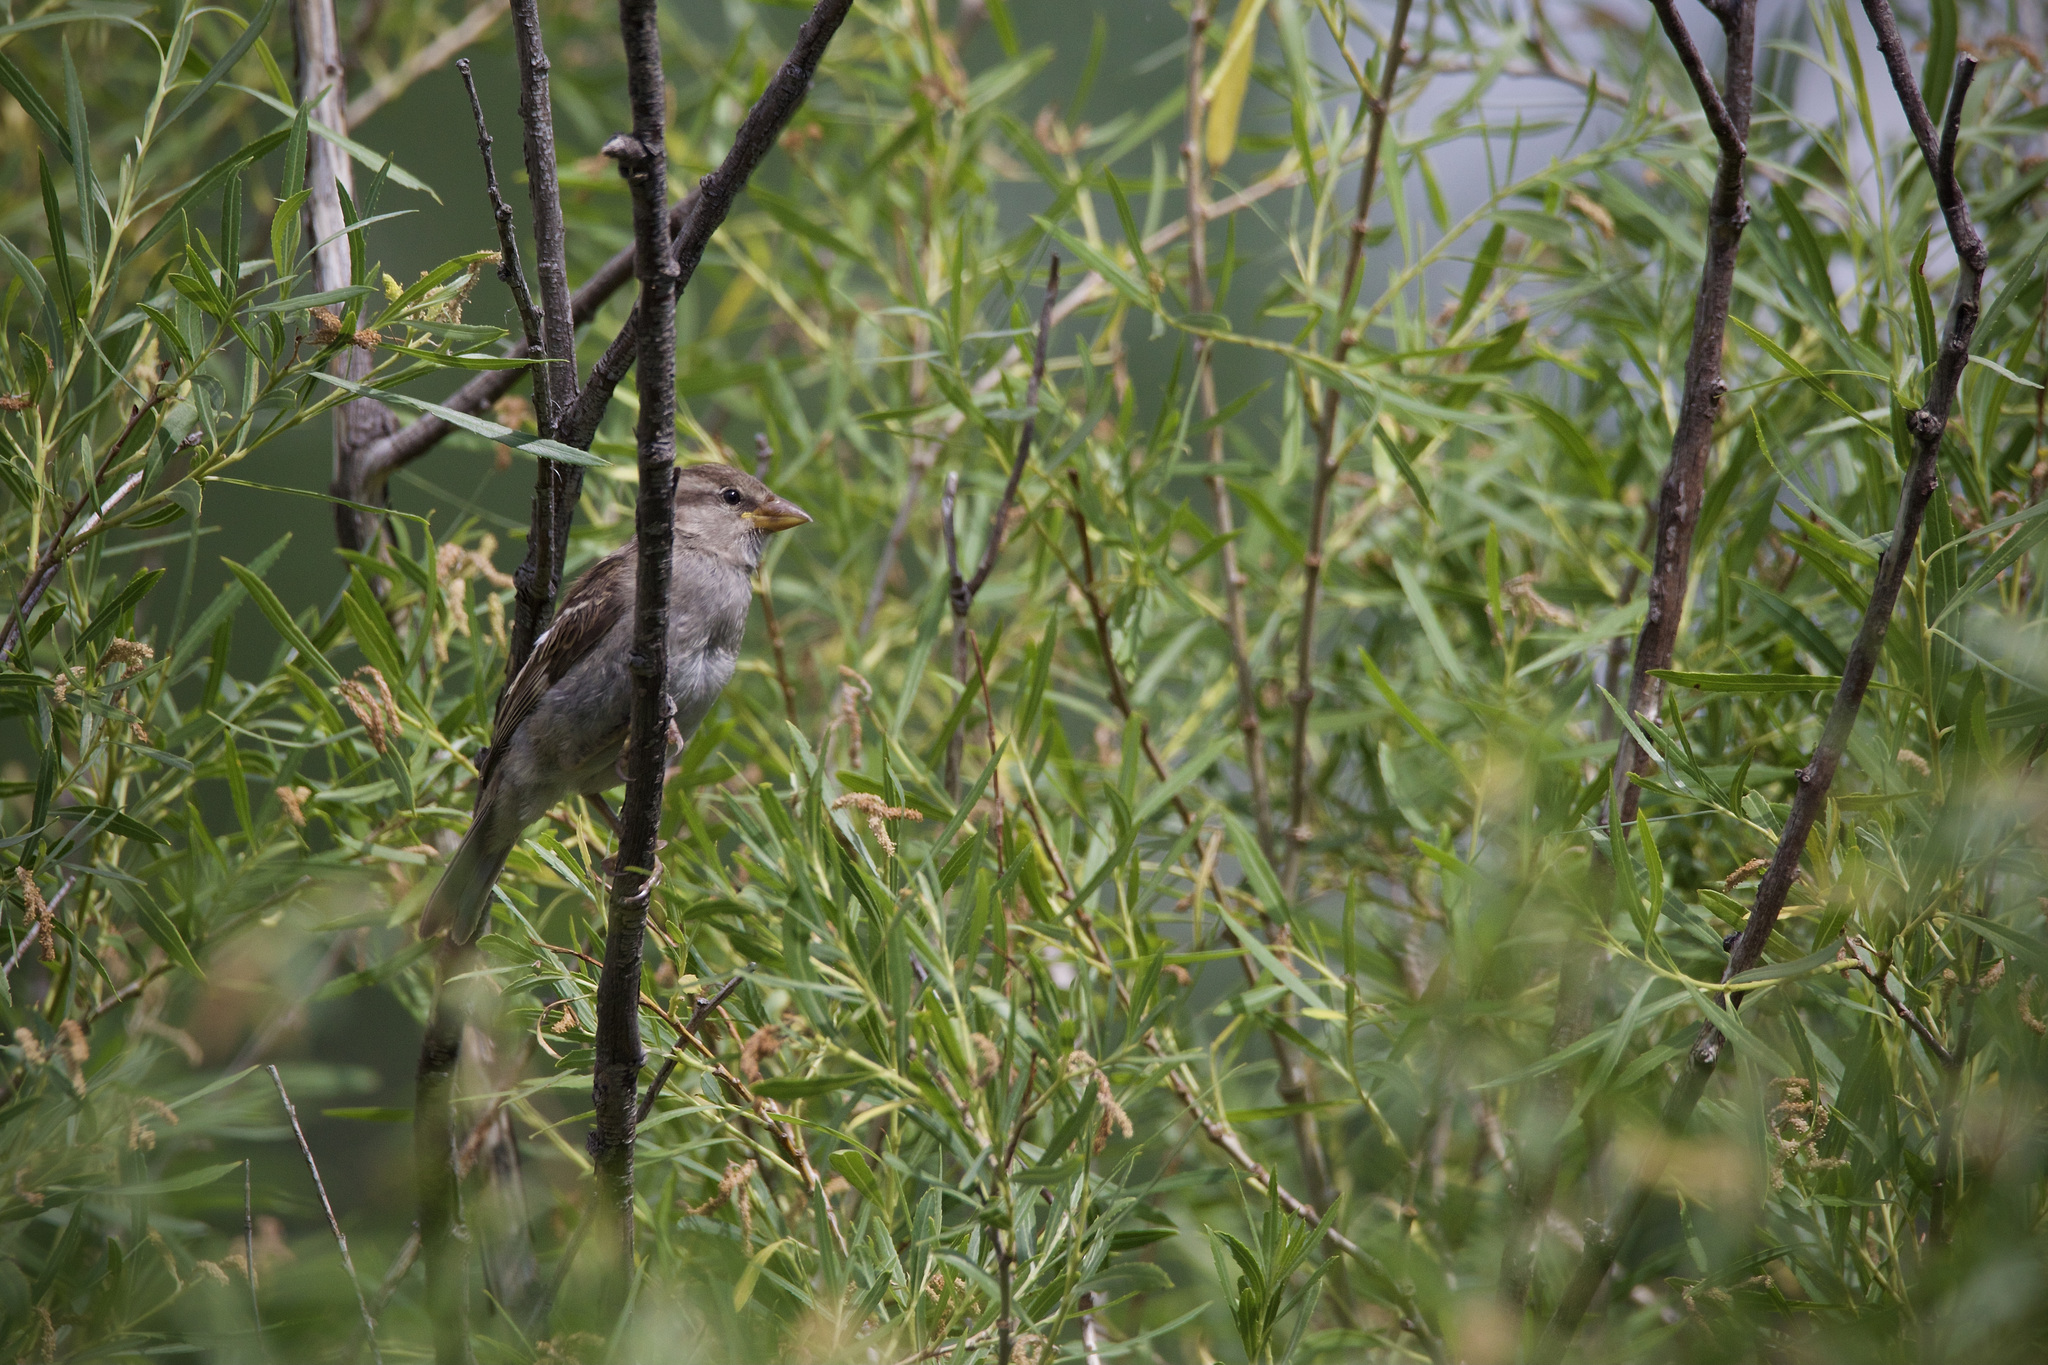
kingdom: Animalia
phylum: Chordata
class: Aves
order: Passeriformes
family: Passeridae
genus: Passer
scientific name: Passer domesticus
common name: House sparrow
